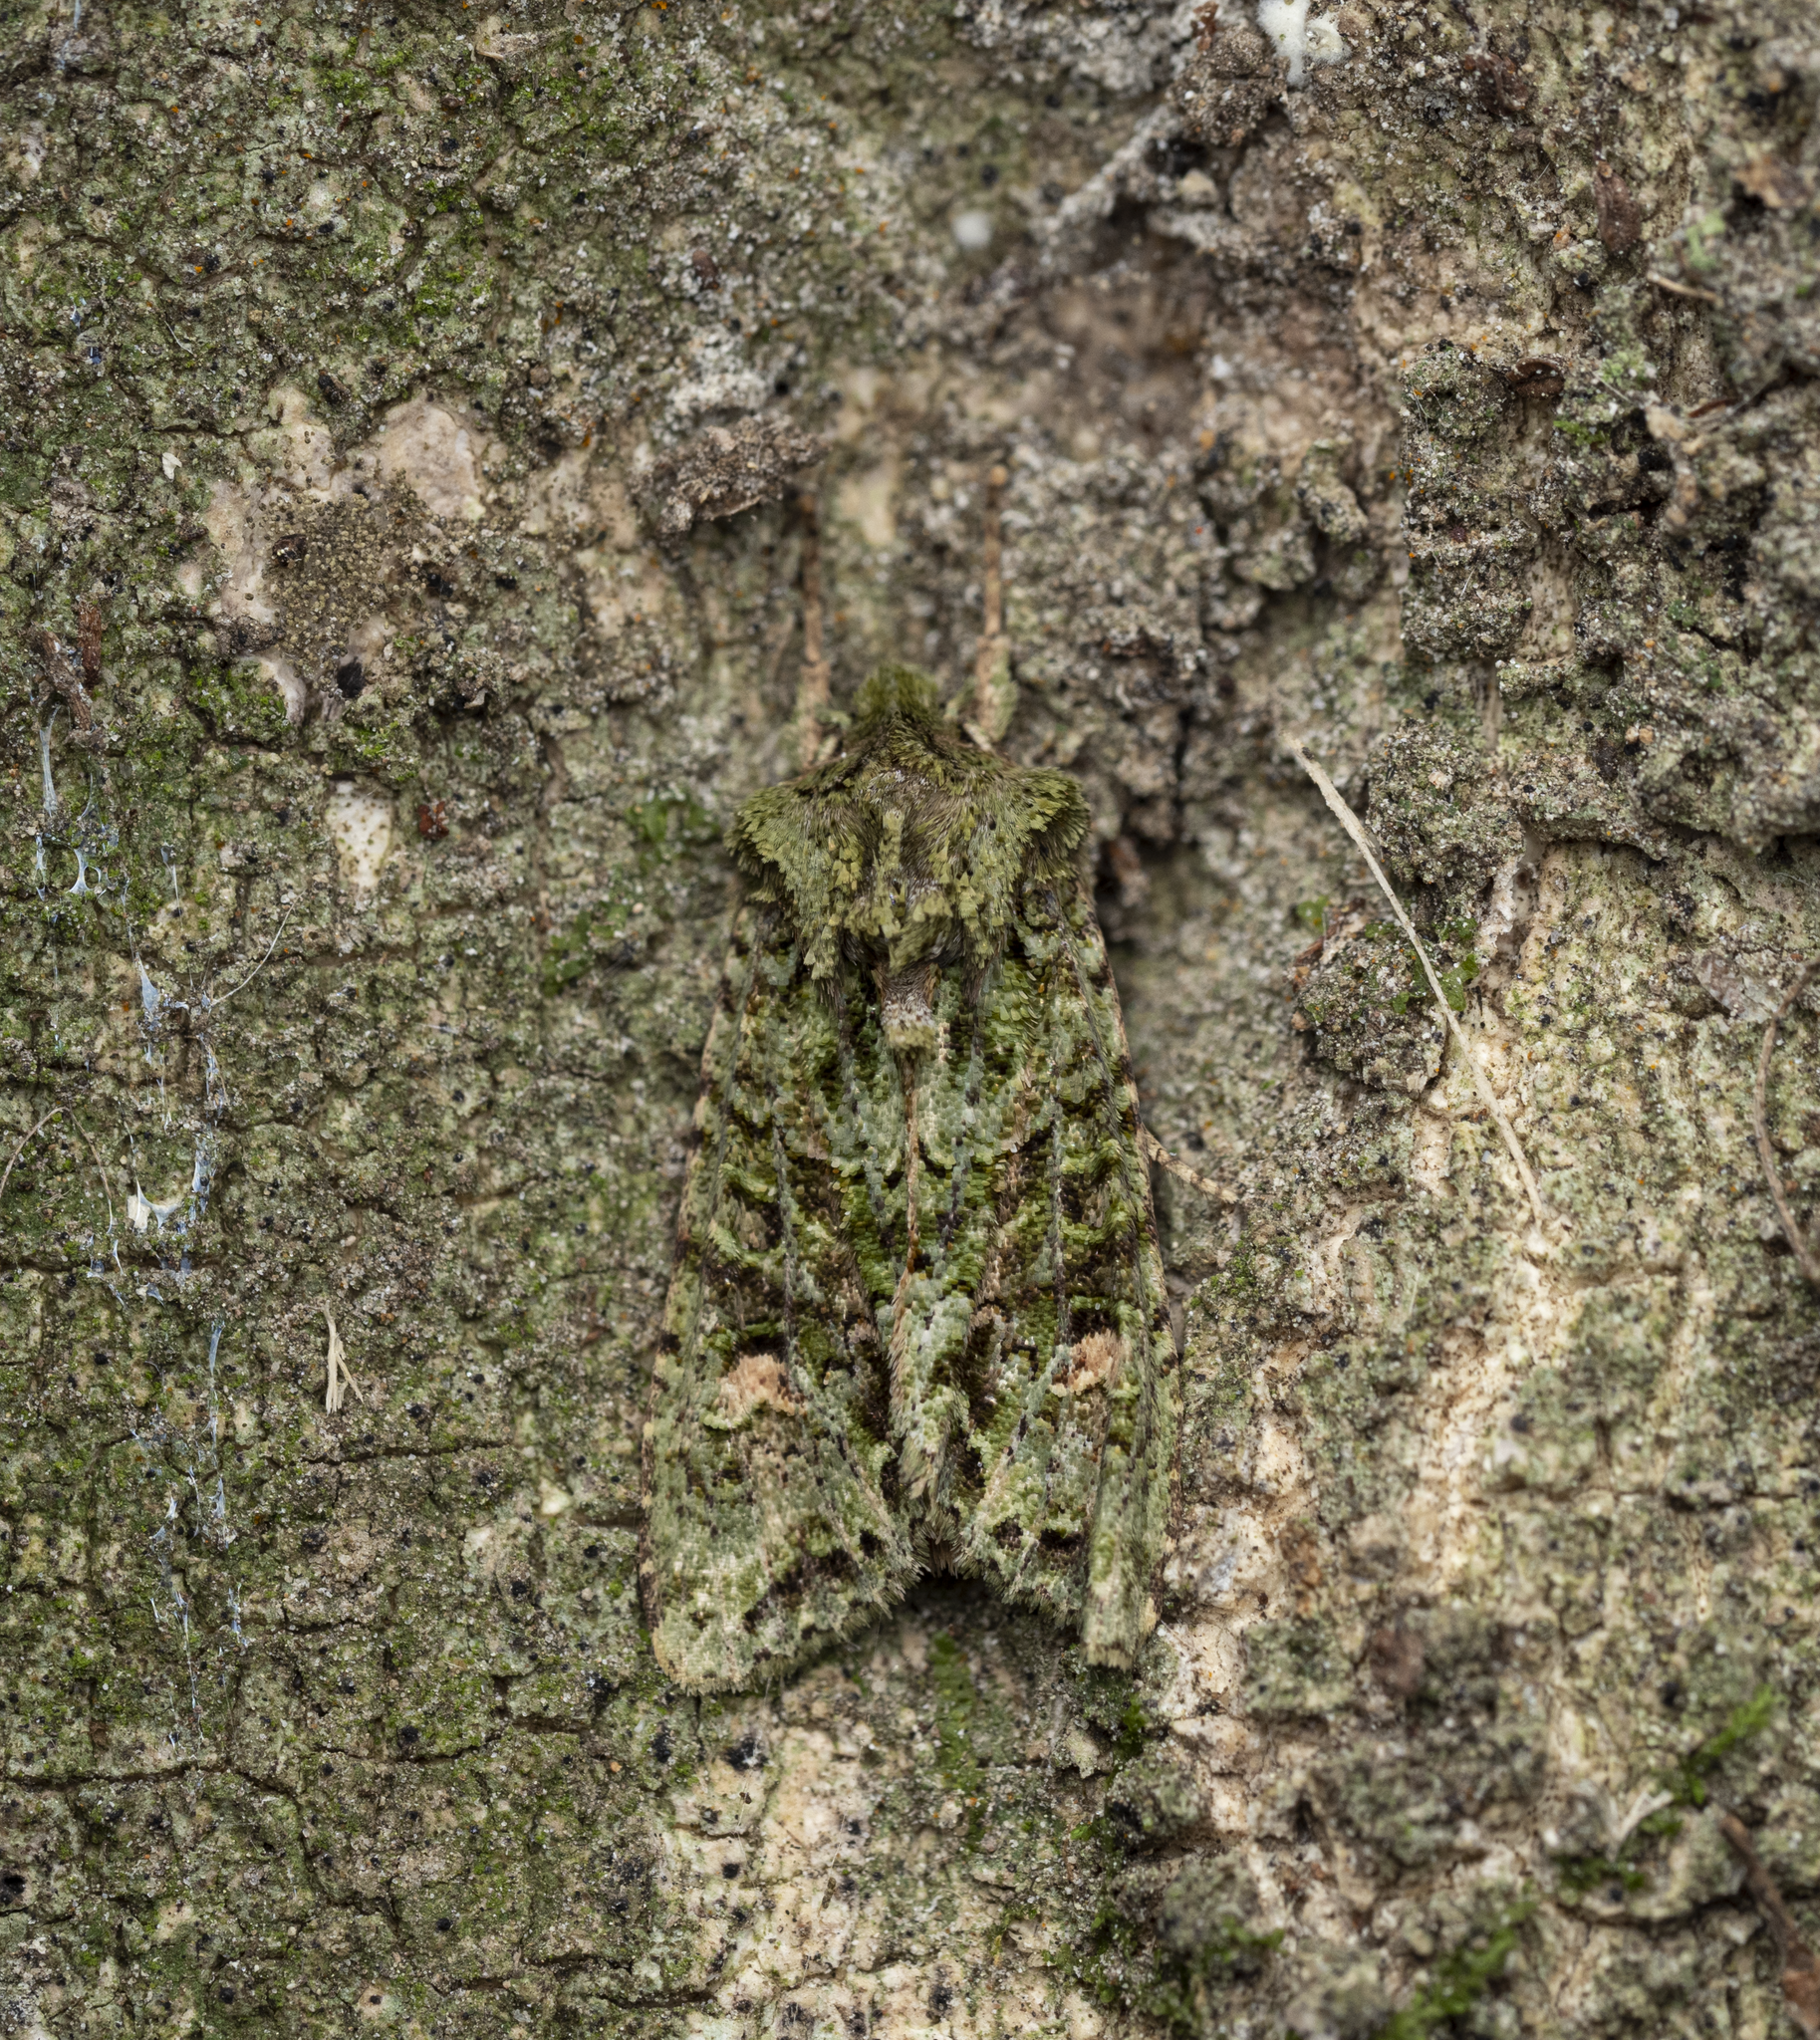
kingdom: Animalia
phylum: Arthropoda
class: Insecta
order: Lepidoptera
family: Noctuidae
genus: Ichneutica
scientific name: Ichneutica
